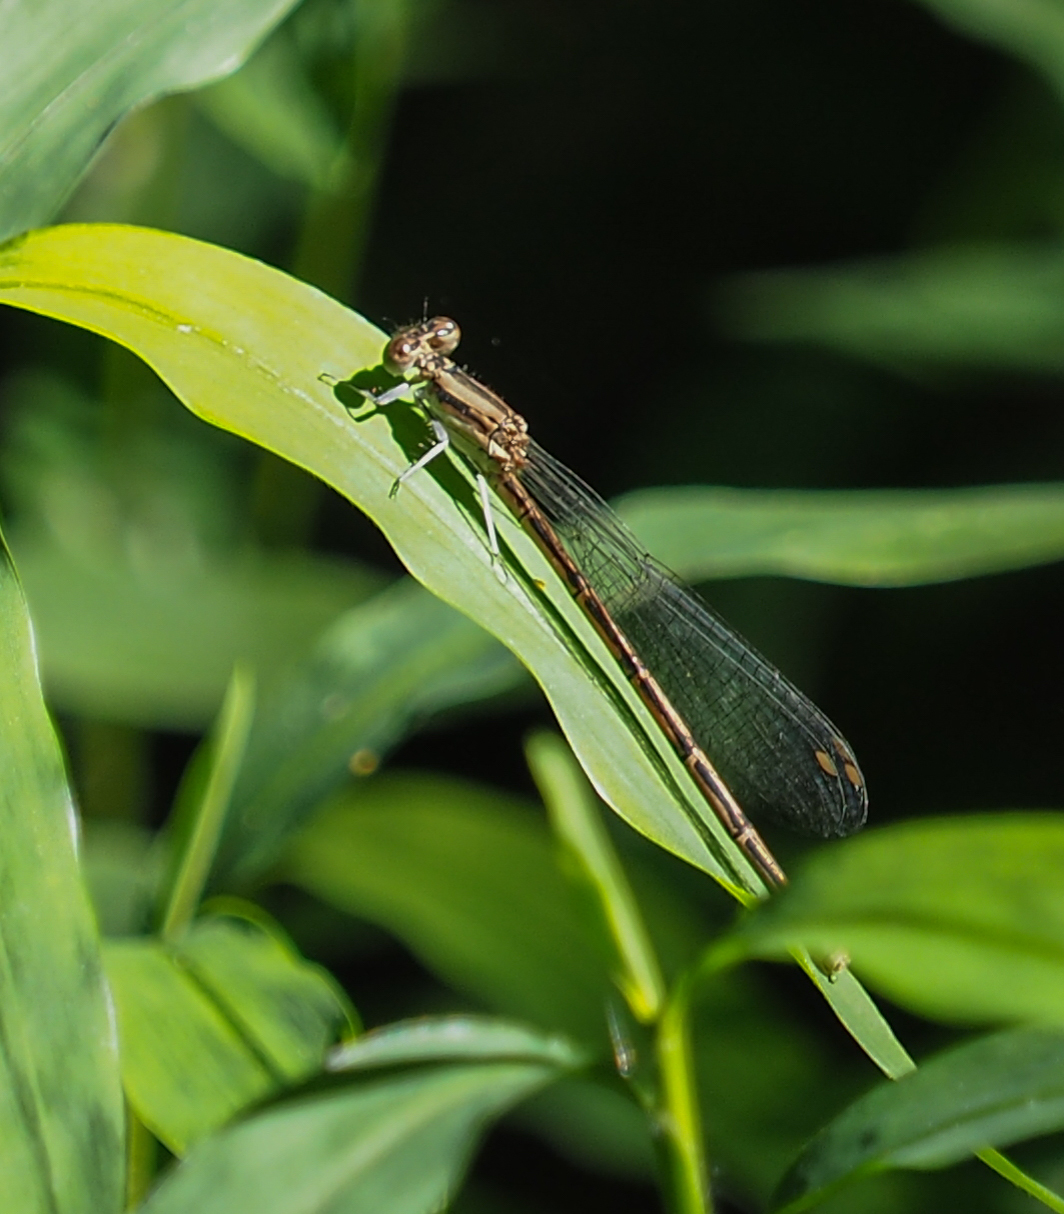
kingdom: Animalia
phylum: Arthropoda
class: Insecta
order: Odonata
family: Coenagrionidae
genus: Argia
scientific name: Argia fumipennis
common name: Variable dancer
